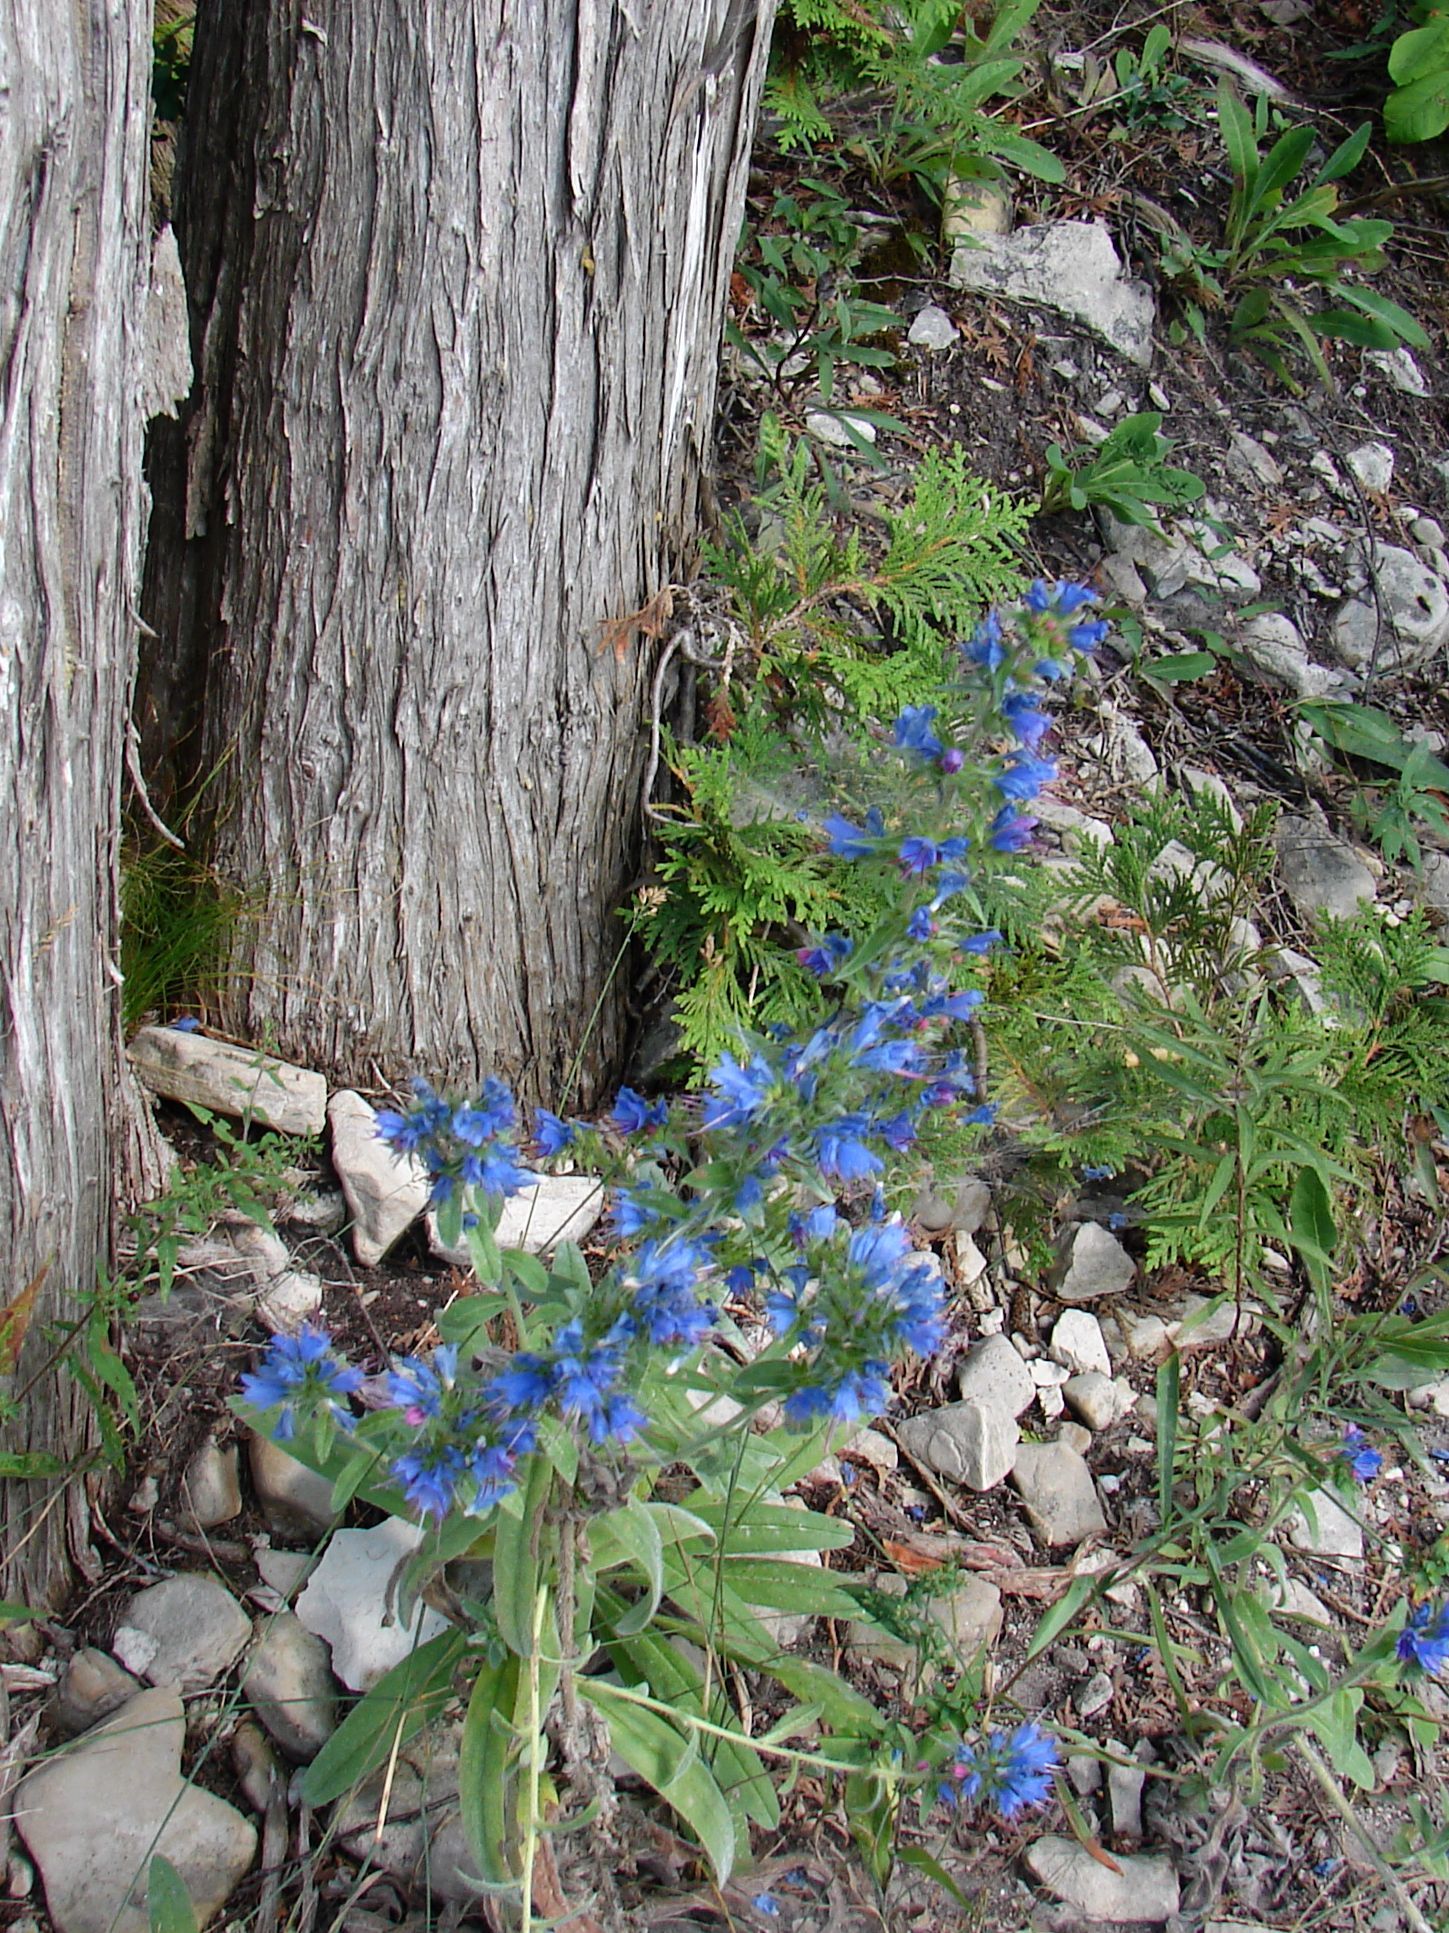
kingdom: Plantae
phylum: Tracheophyta
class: Magnoliopsida
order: Boraginales
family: Boraginaceae
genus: Echium
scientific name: Echium vulgare
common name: Common viper's bugloss
